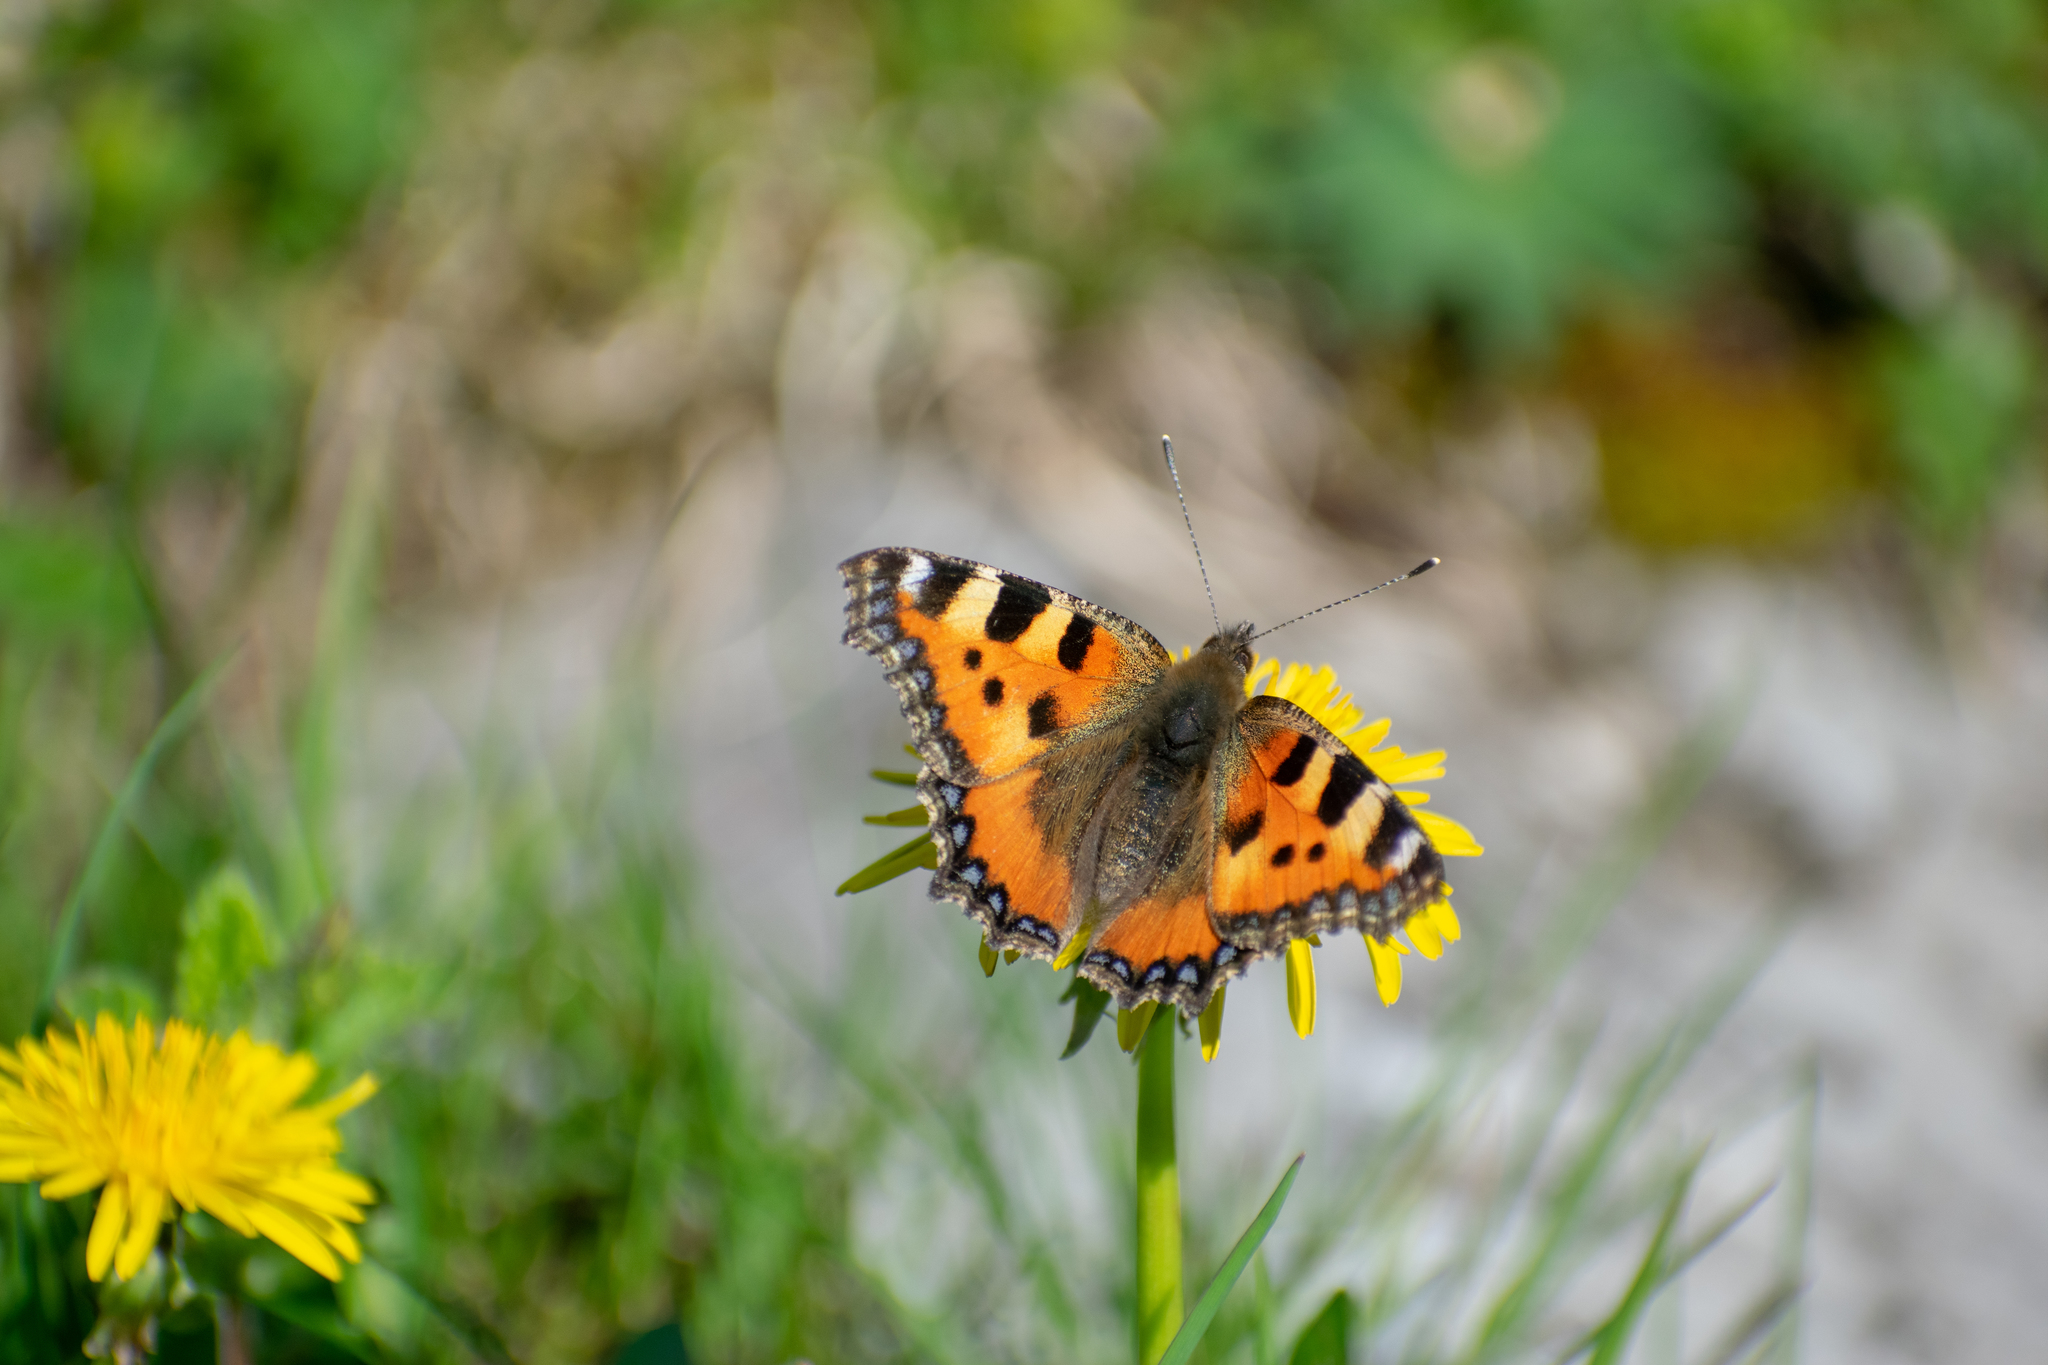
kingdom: Animalia
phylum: Arthropoda
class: Insecta
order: Lepidoptera
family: Nymphalidae
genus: Aglais
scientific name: Aglais urticae
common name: Small tortoiseshell
